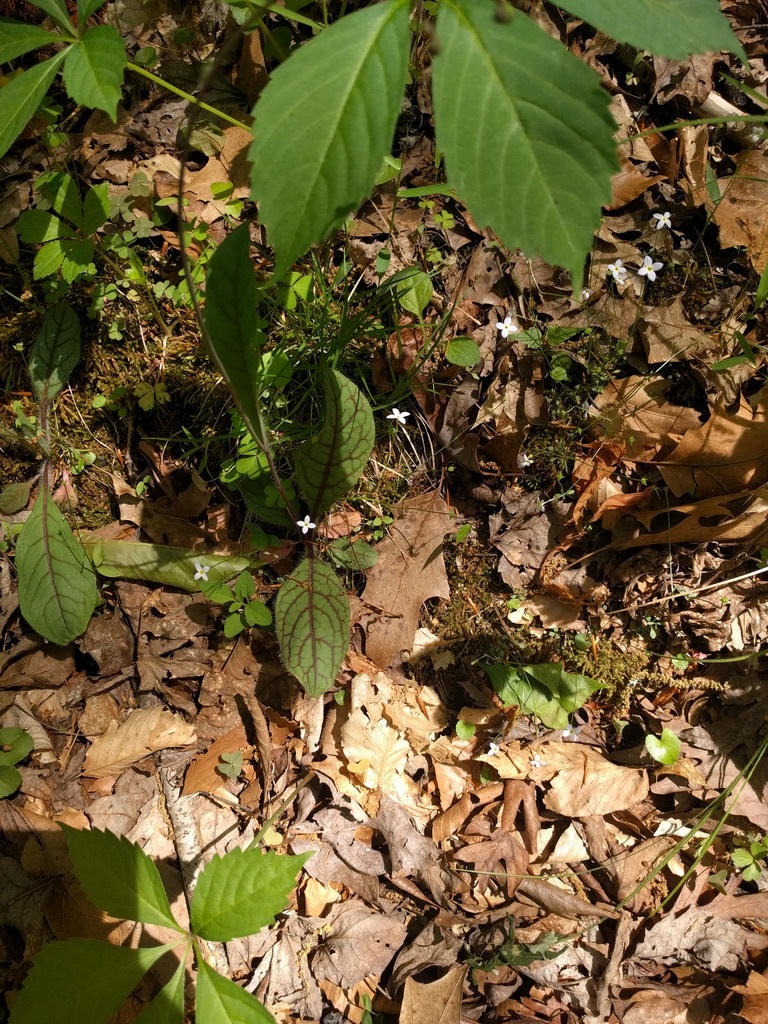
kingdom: Plantae
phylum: Tracheophyta
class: Magnoliopsida
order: Gentianales
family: Rubiaceae
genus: Houstonia
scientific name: Houstonia caerulea
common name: Bluets
